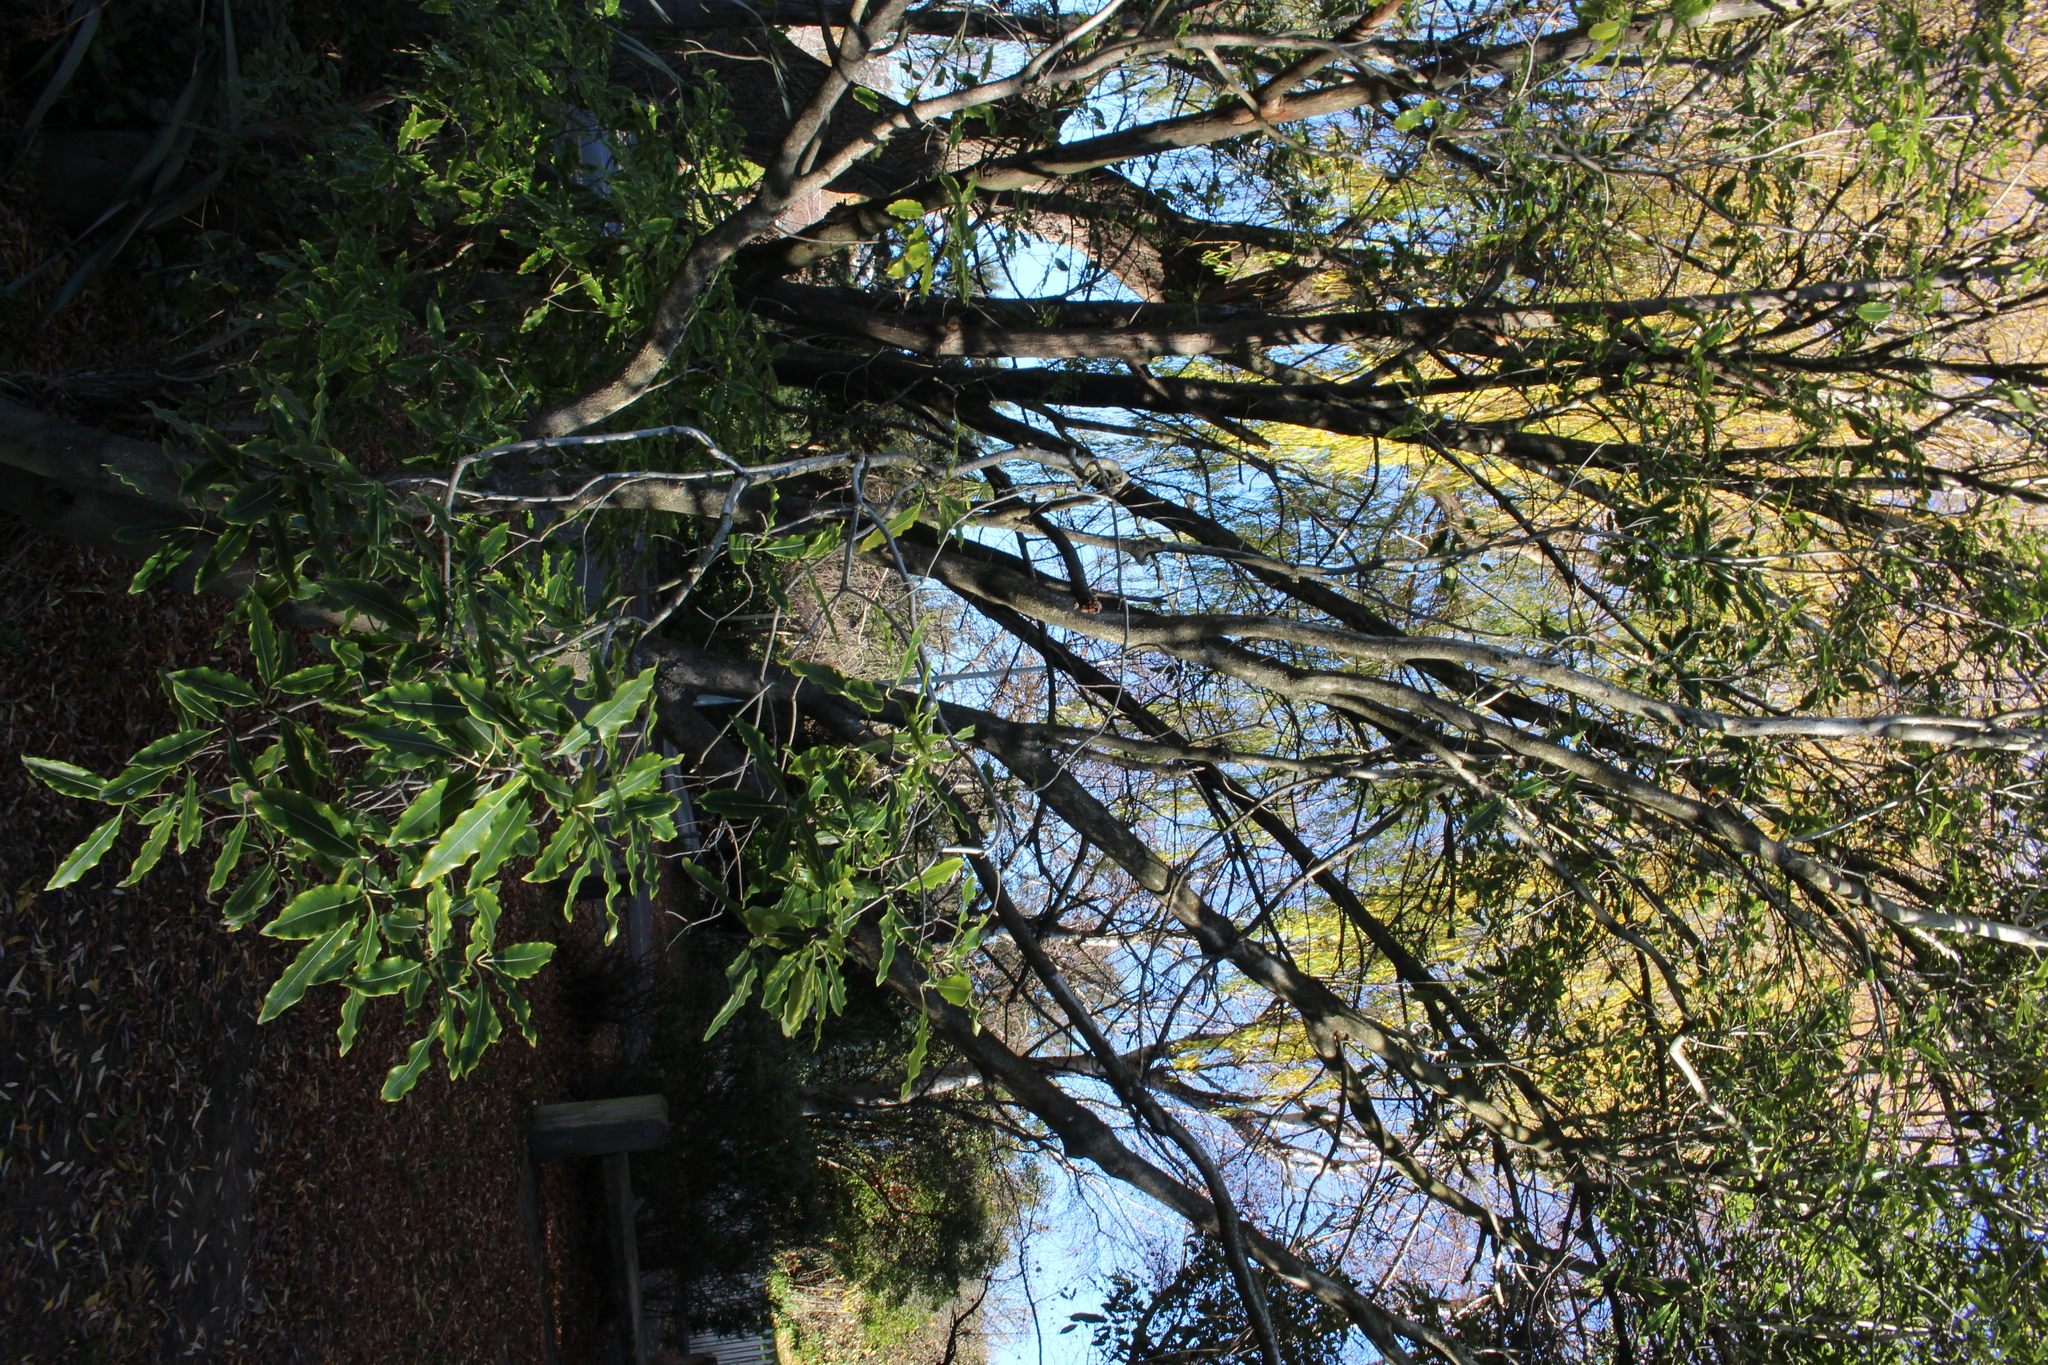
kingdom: Plantae
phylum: Tracheophyta
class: Magnoliopsida
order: Apiales
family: Pittosporaceae
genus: Pittosporum
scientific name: Pittosporum eugenioides
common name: Lemonwood
